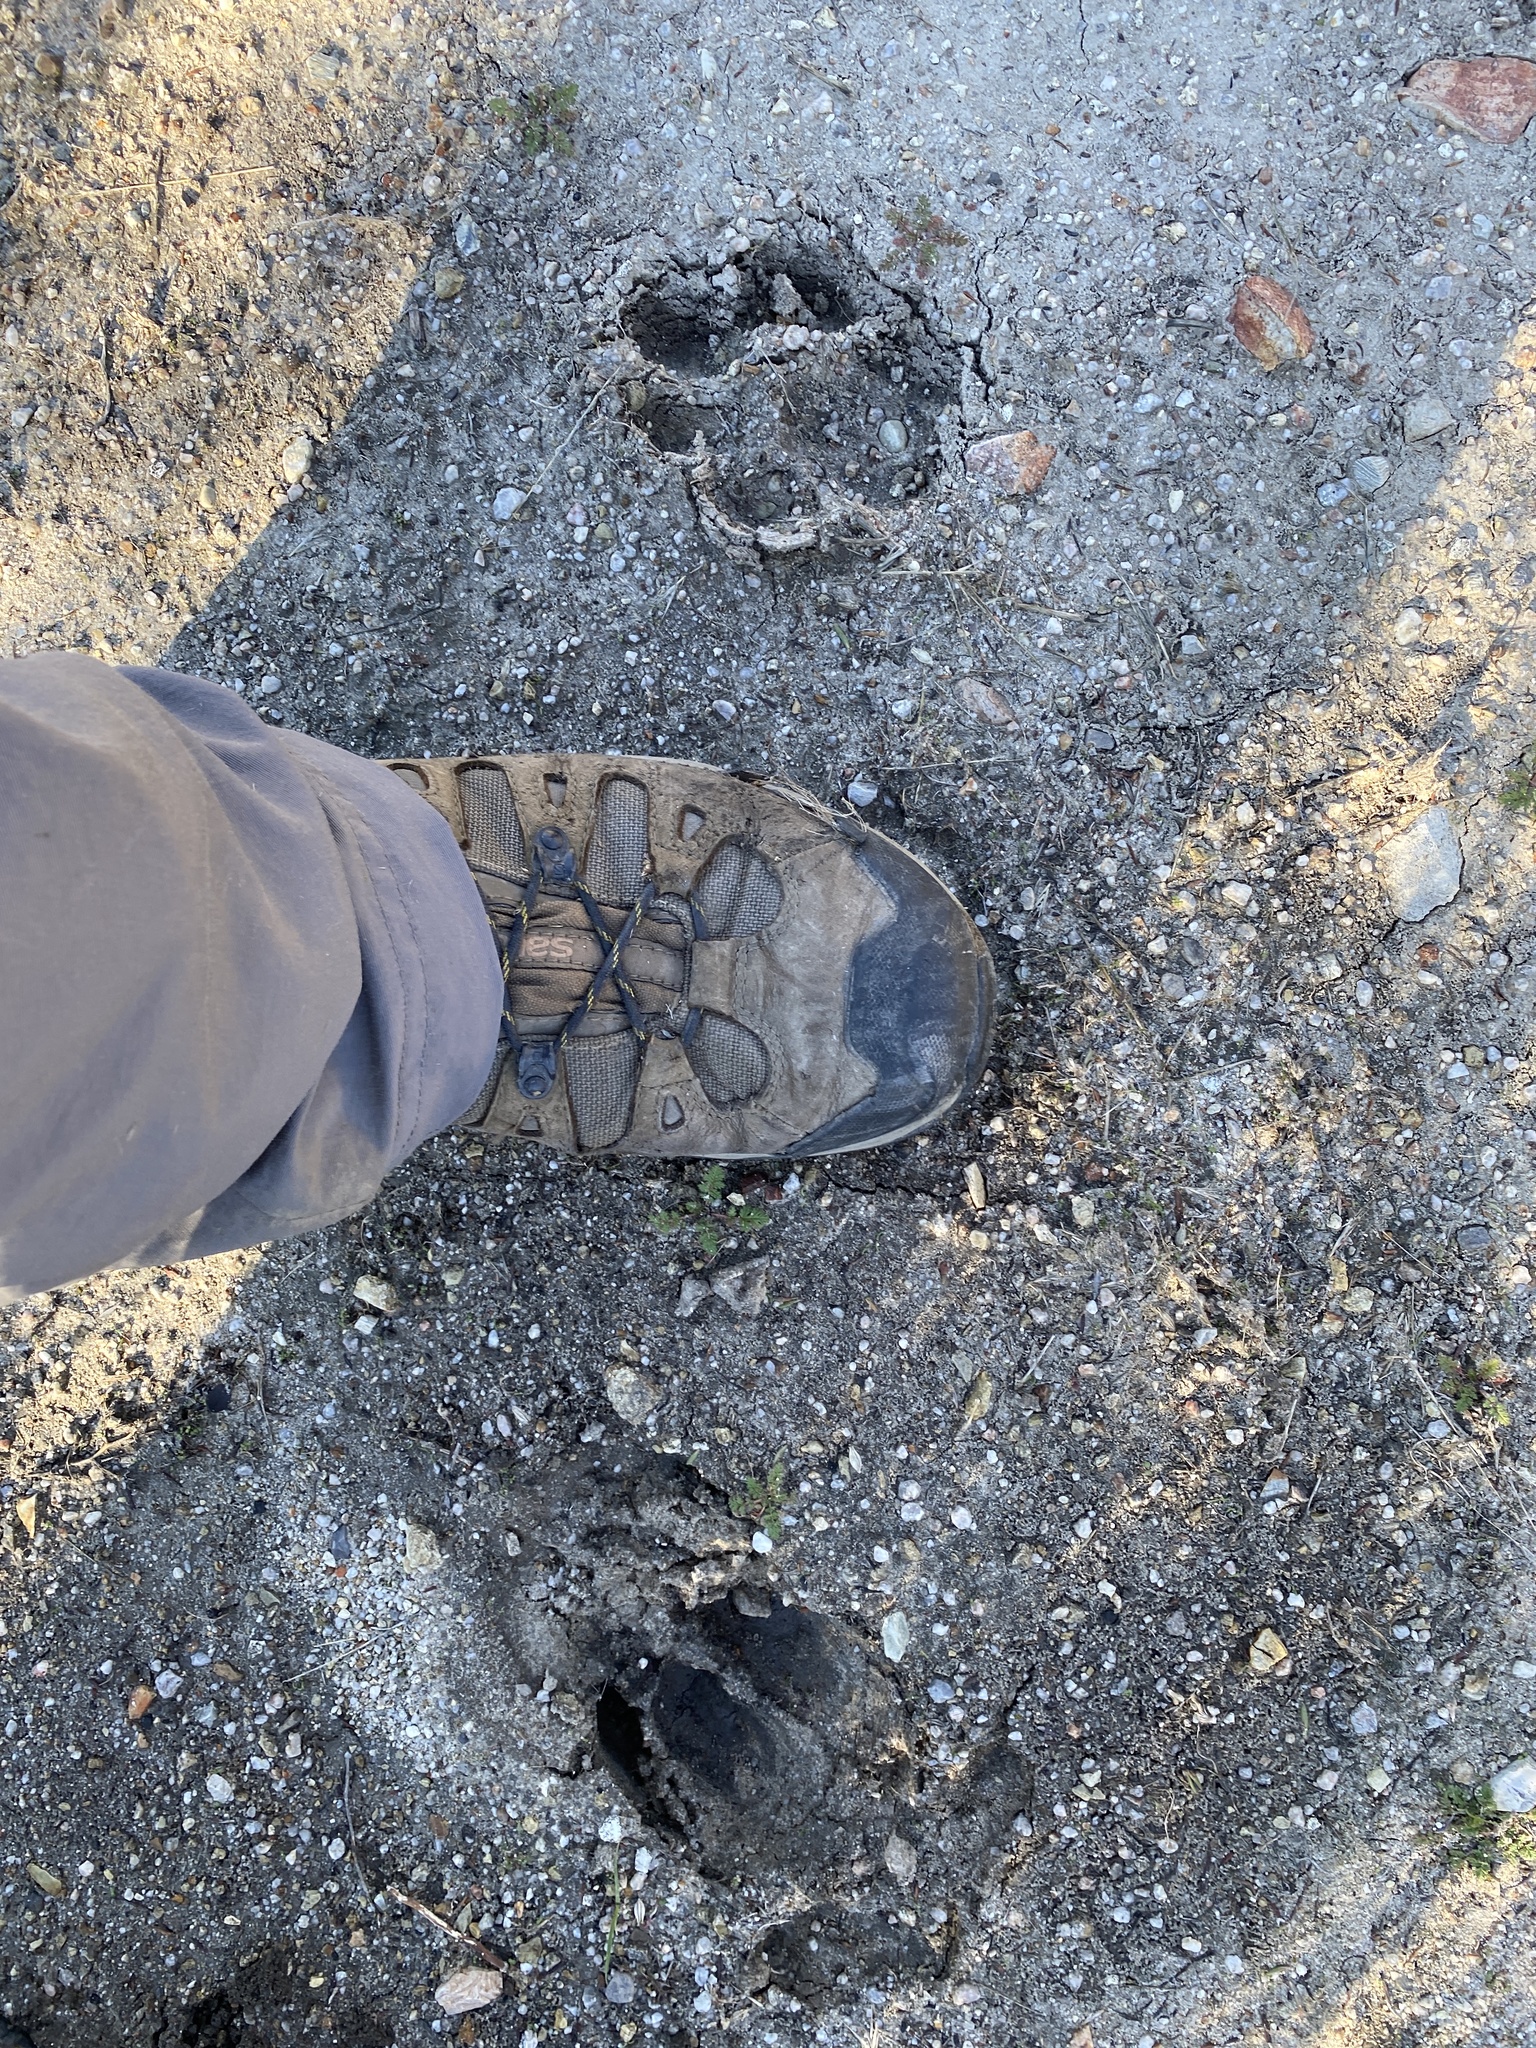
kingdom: Animalia
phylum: Chordata
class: Mammalia
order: Carnivora
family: Felidae
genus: Puma
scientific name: Puma concolor
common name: Puma
